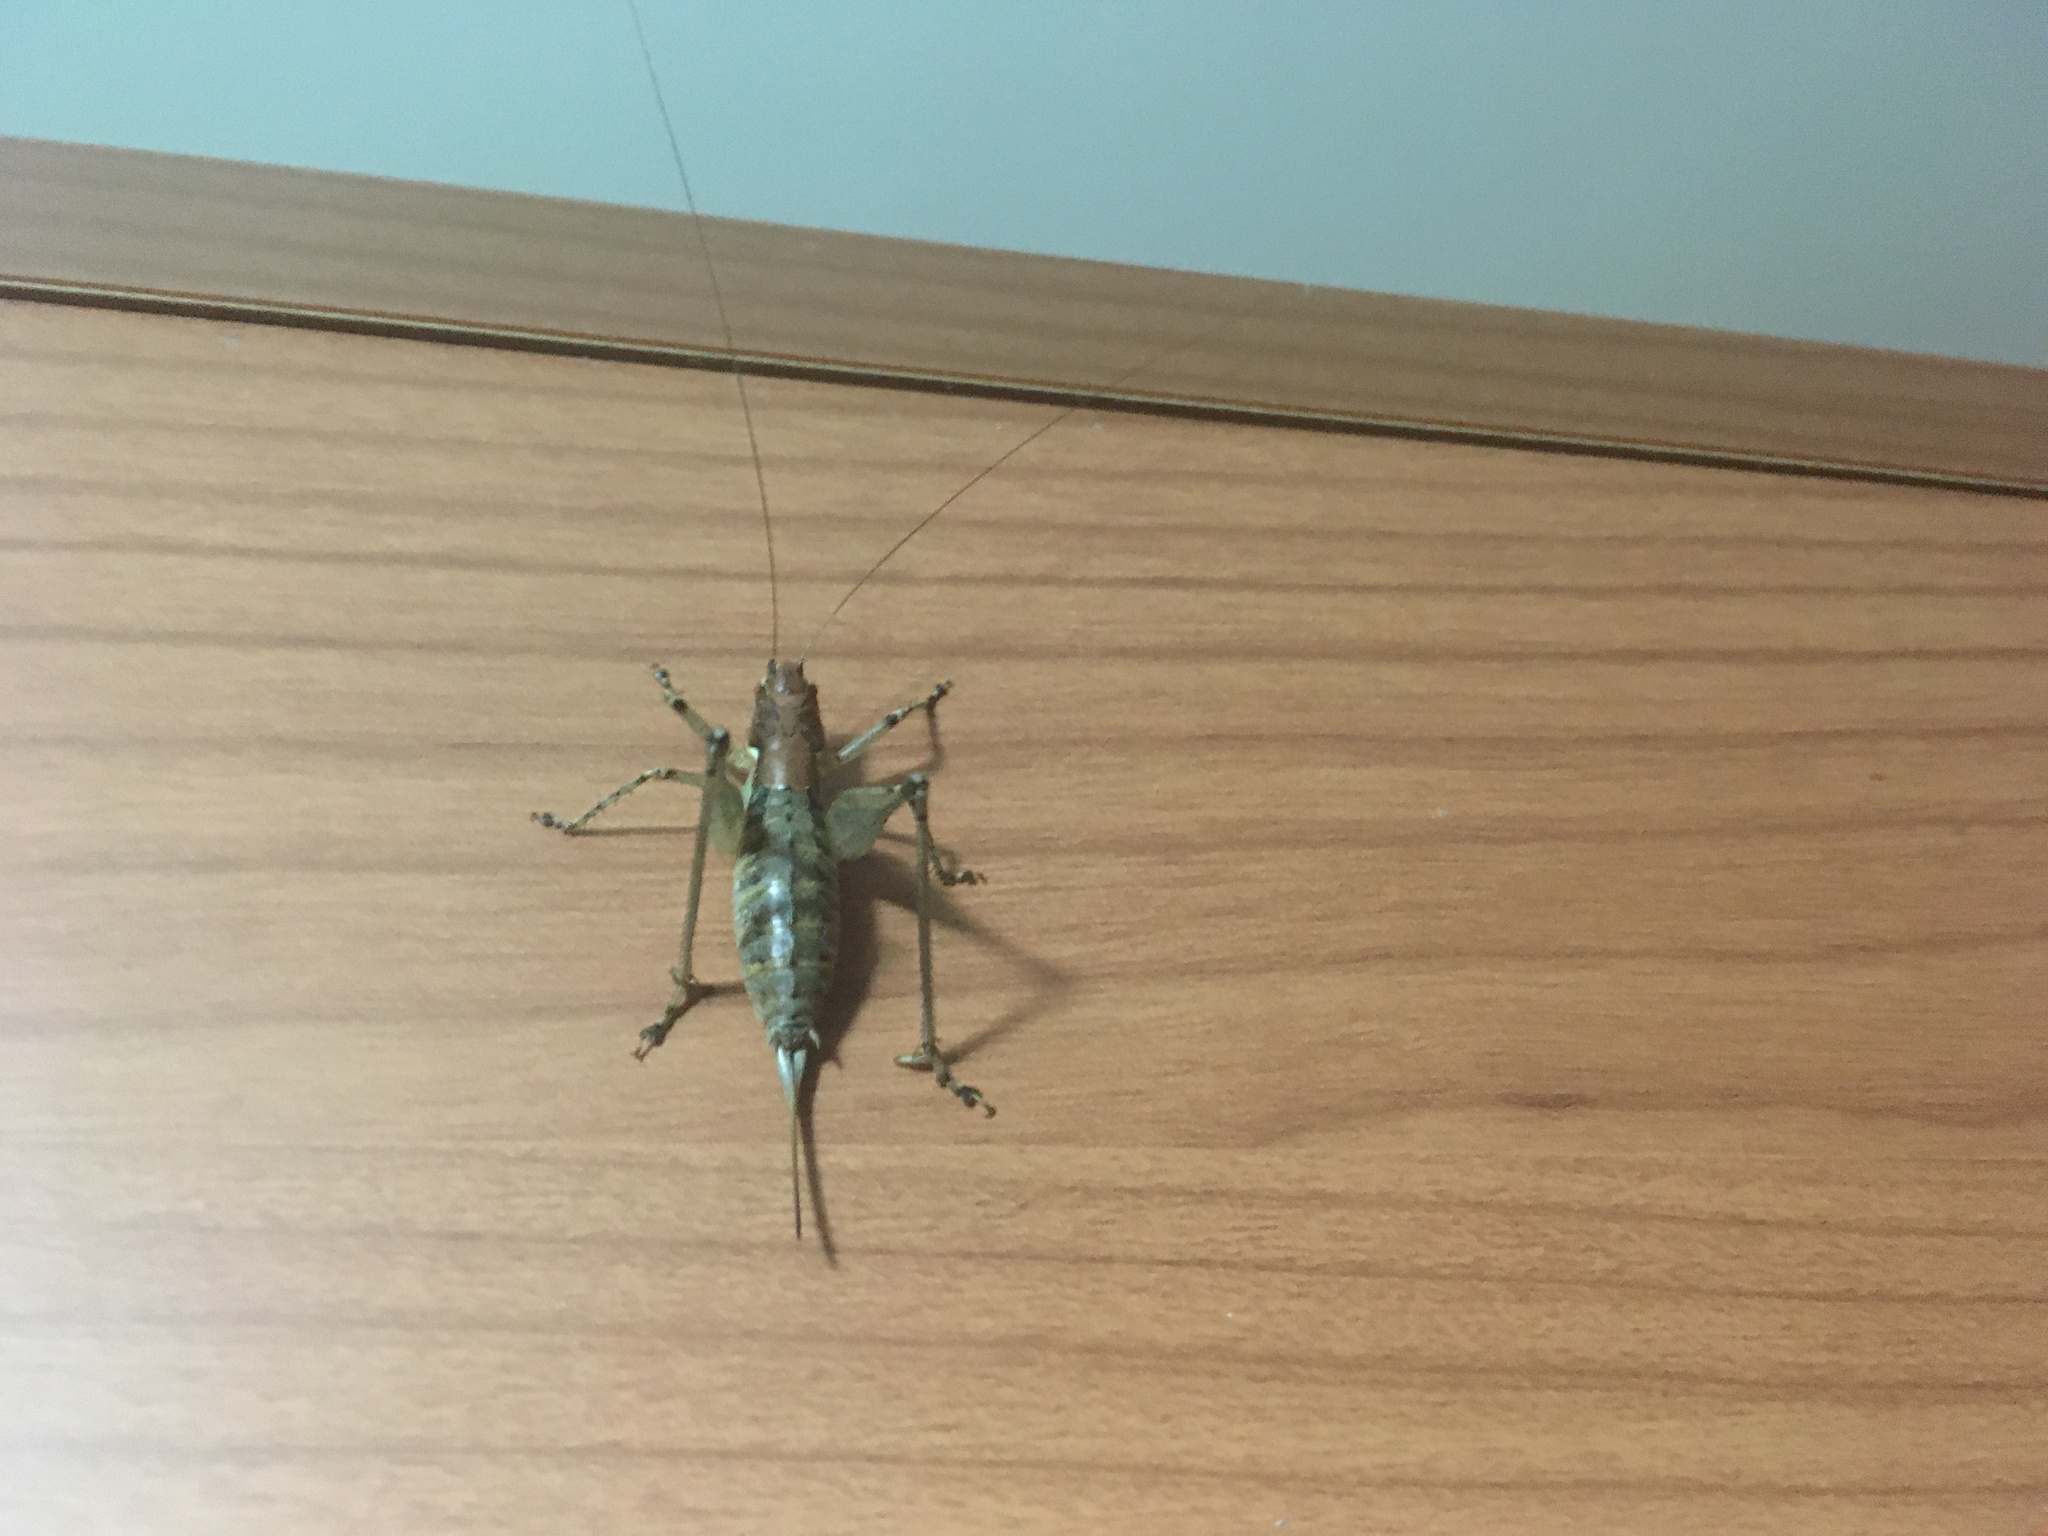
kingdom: Animalia
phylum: Arthropoda
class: Insecta
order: Orthoptera
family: Tettigoniidae
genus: Rhacocleis
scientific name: Rhacocleis edentata
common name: Toothless bush-cricket
